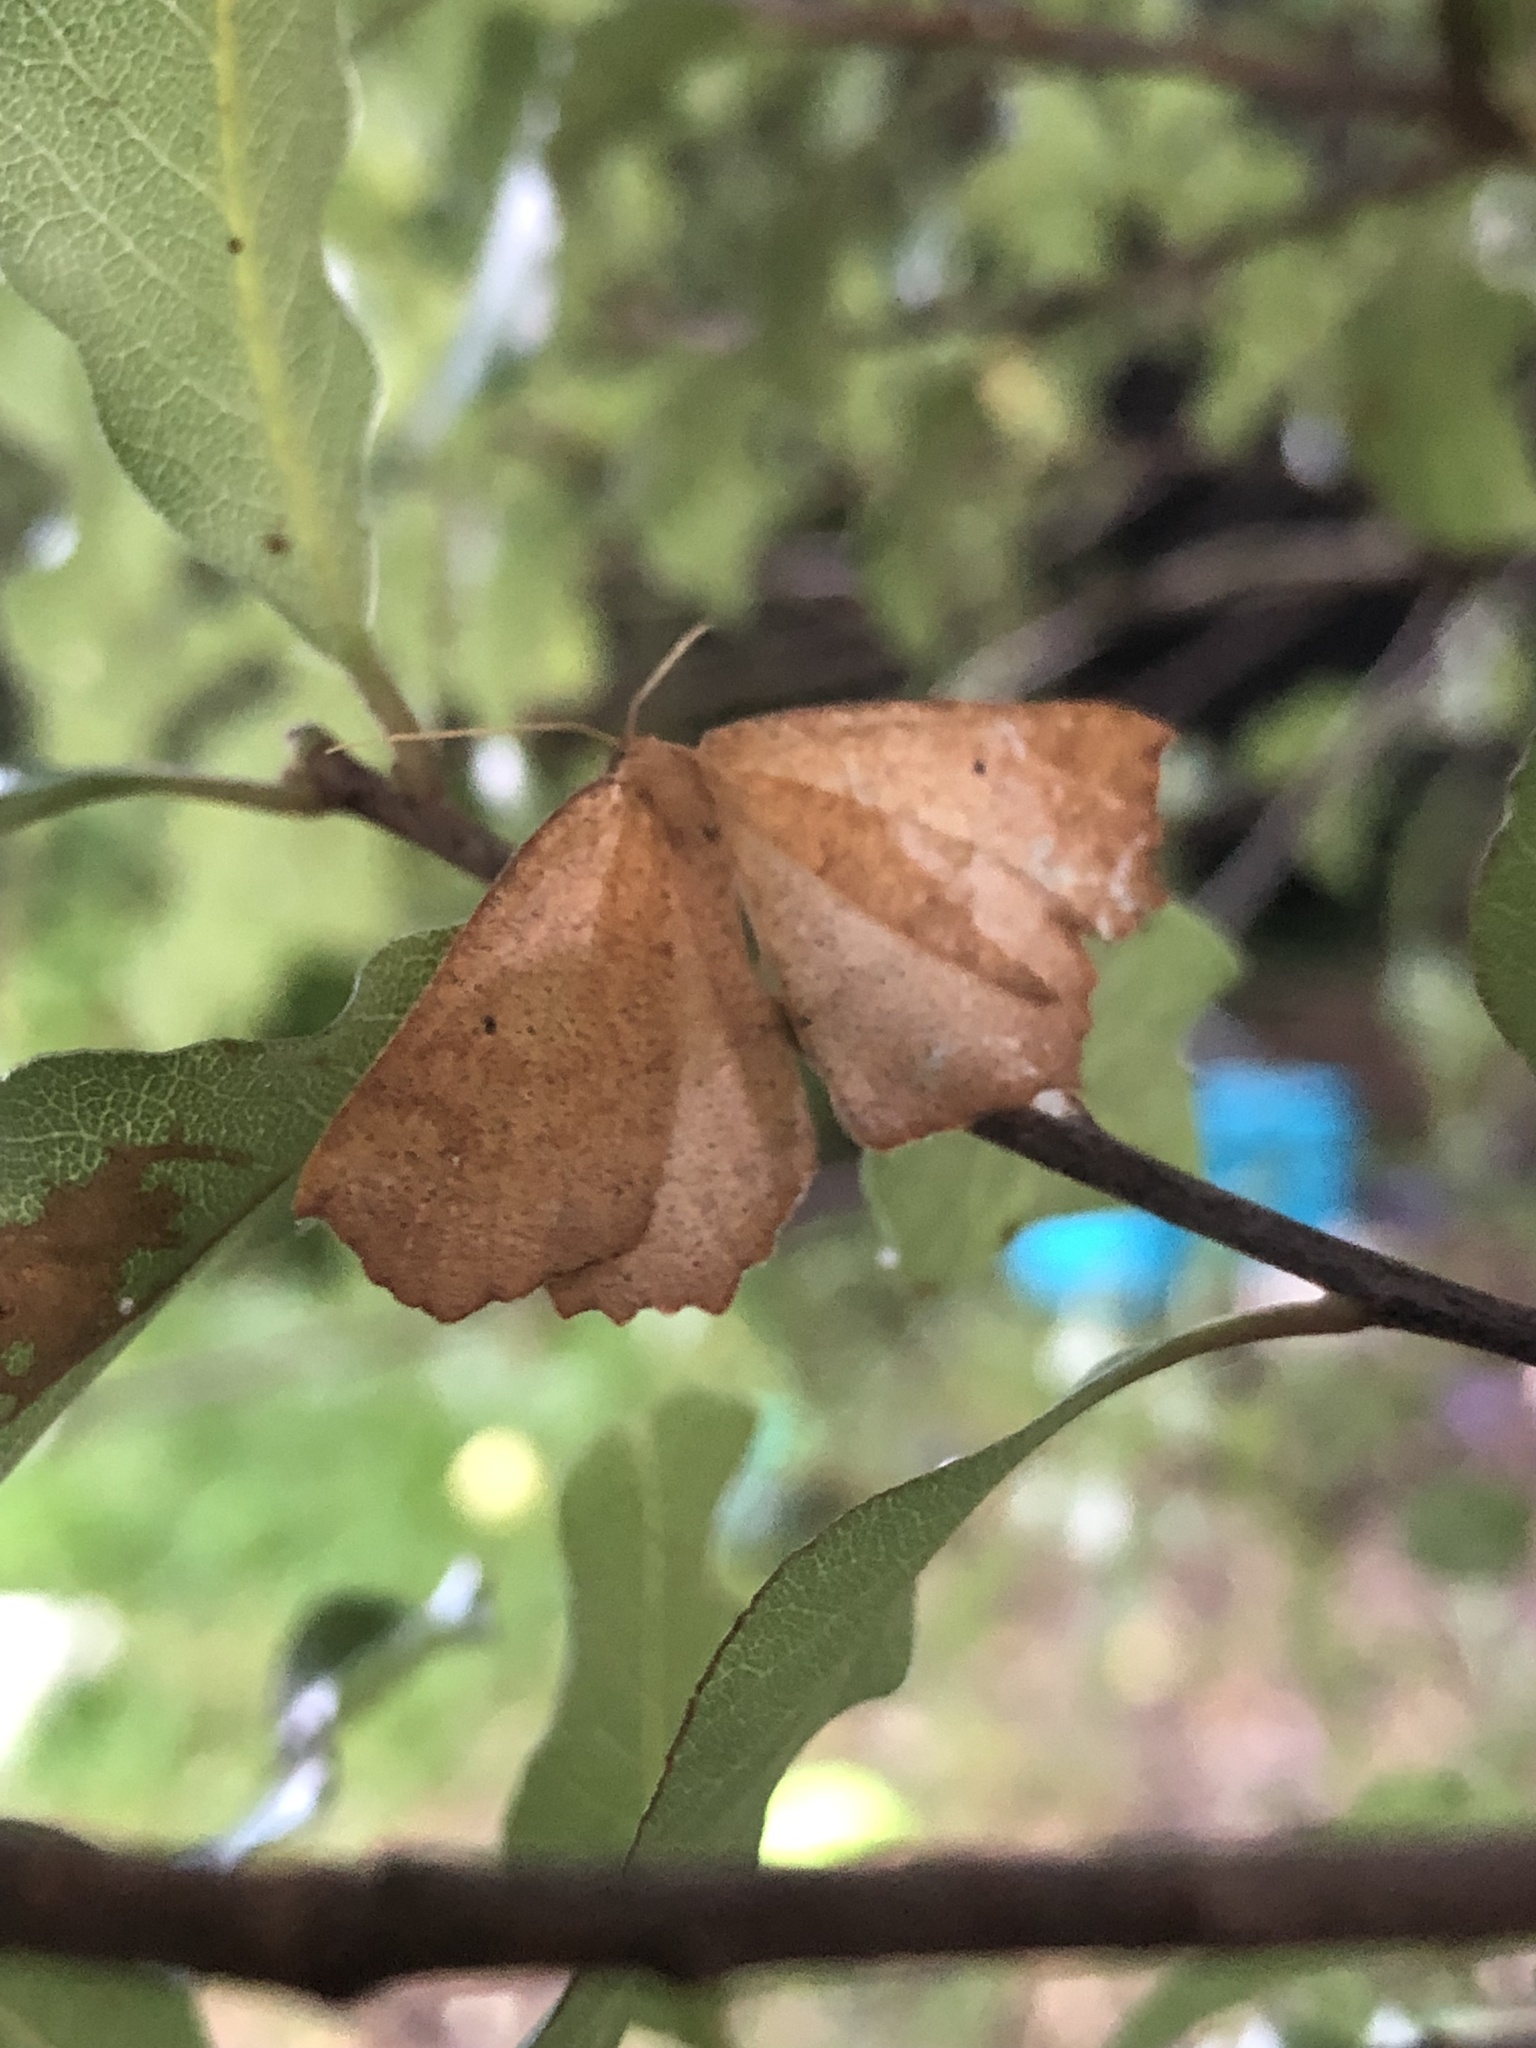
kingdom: Animalia
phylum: Arthropoda
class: Insecta
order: Lepidoptera
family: Geometridae
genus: Xyridacma
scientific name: Xyridacma ustaria
